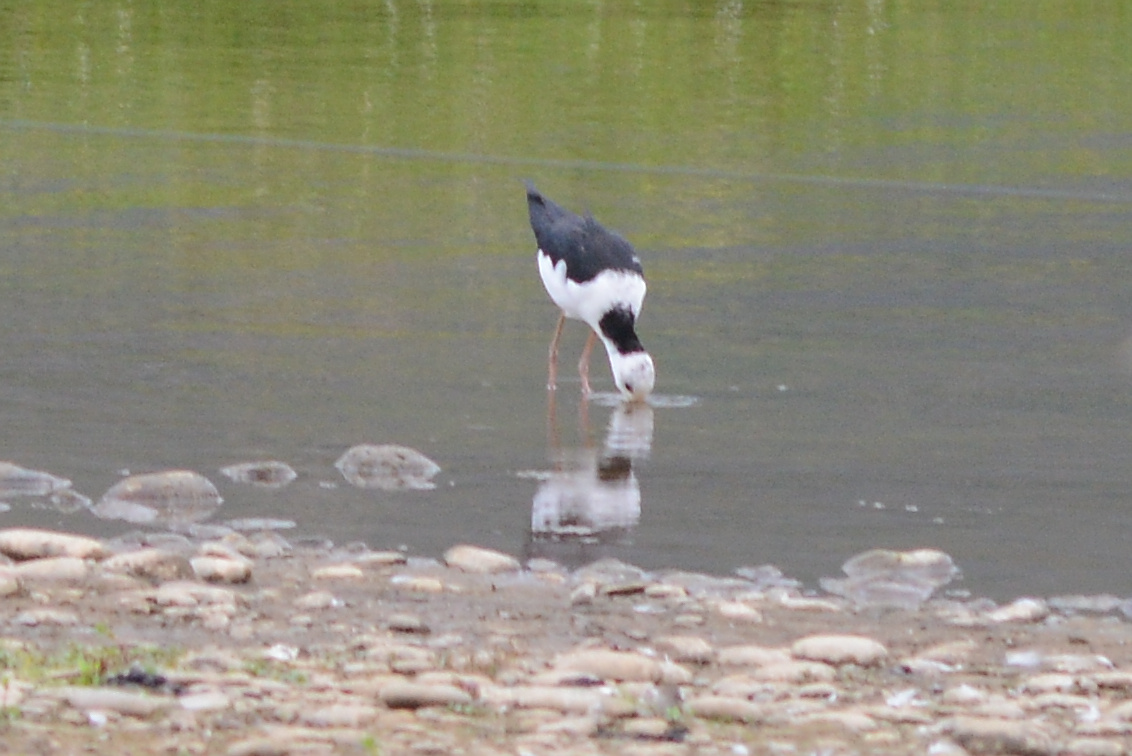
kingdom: Animalia
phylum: Chordata
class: Aves
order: Charadriiformes
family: Recurvirostridae
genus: Himantopus
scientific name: Himantopus leucocephalus
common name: White-headed stilt
